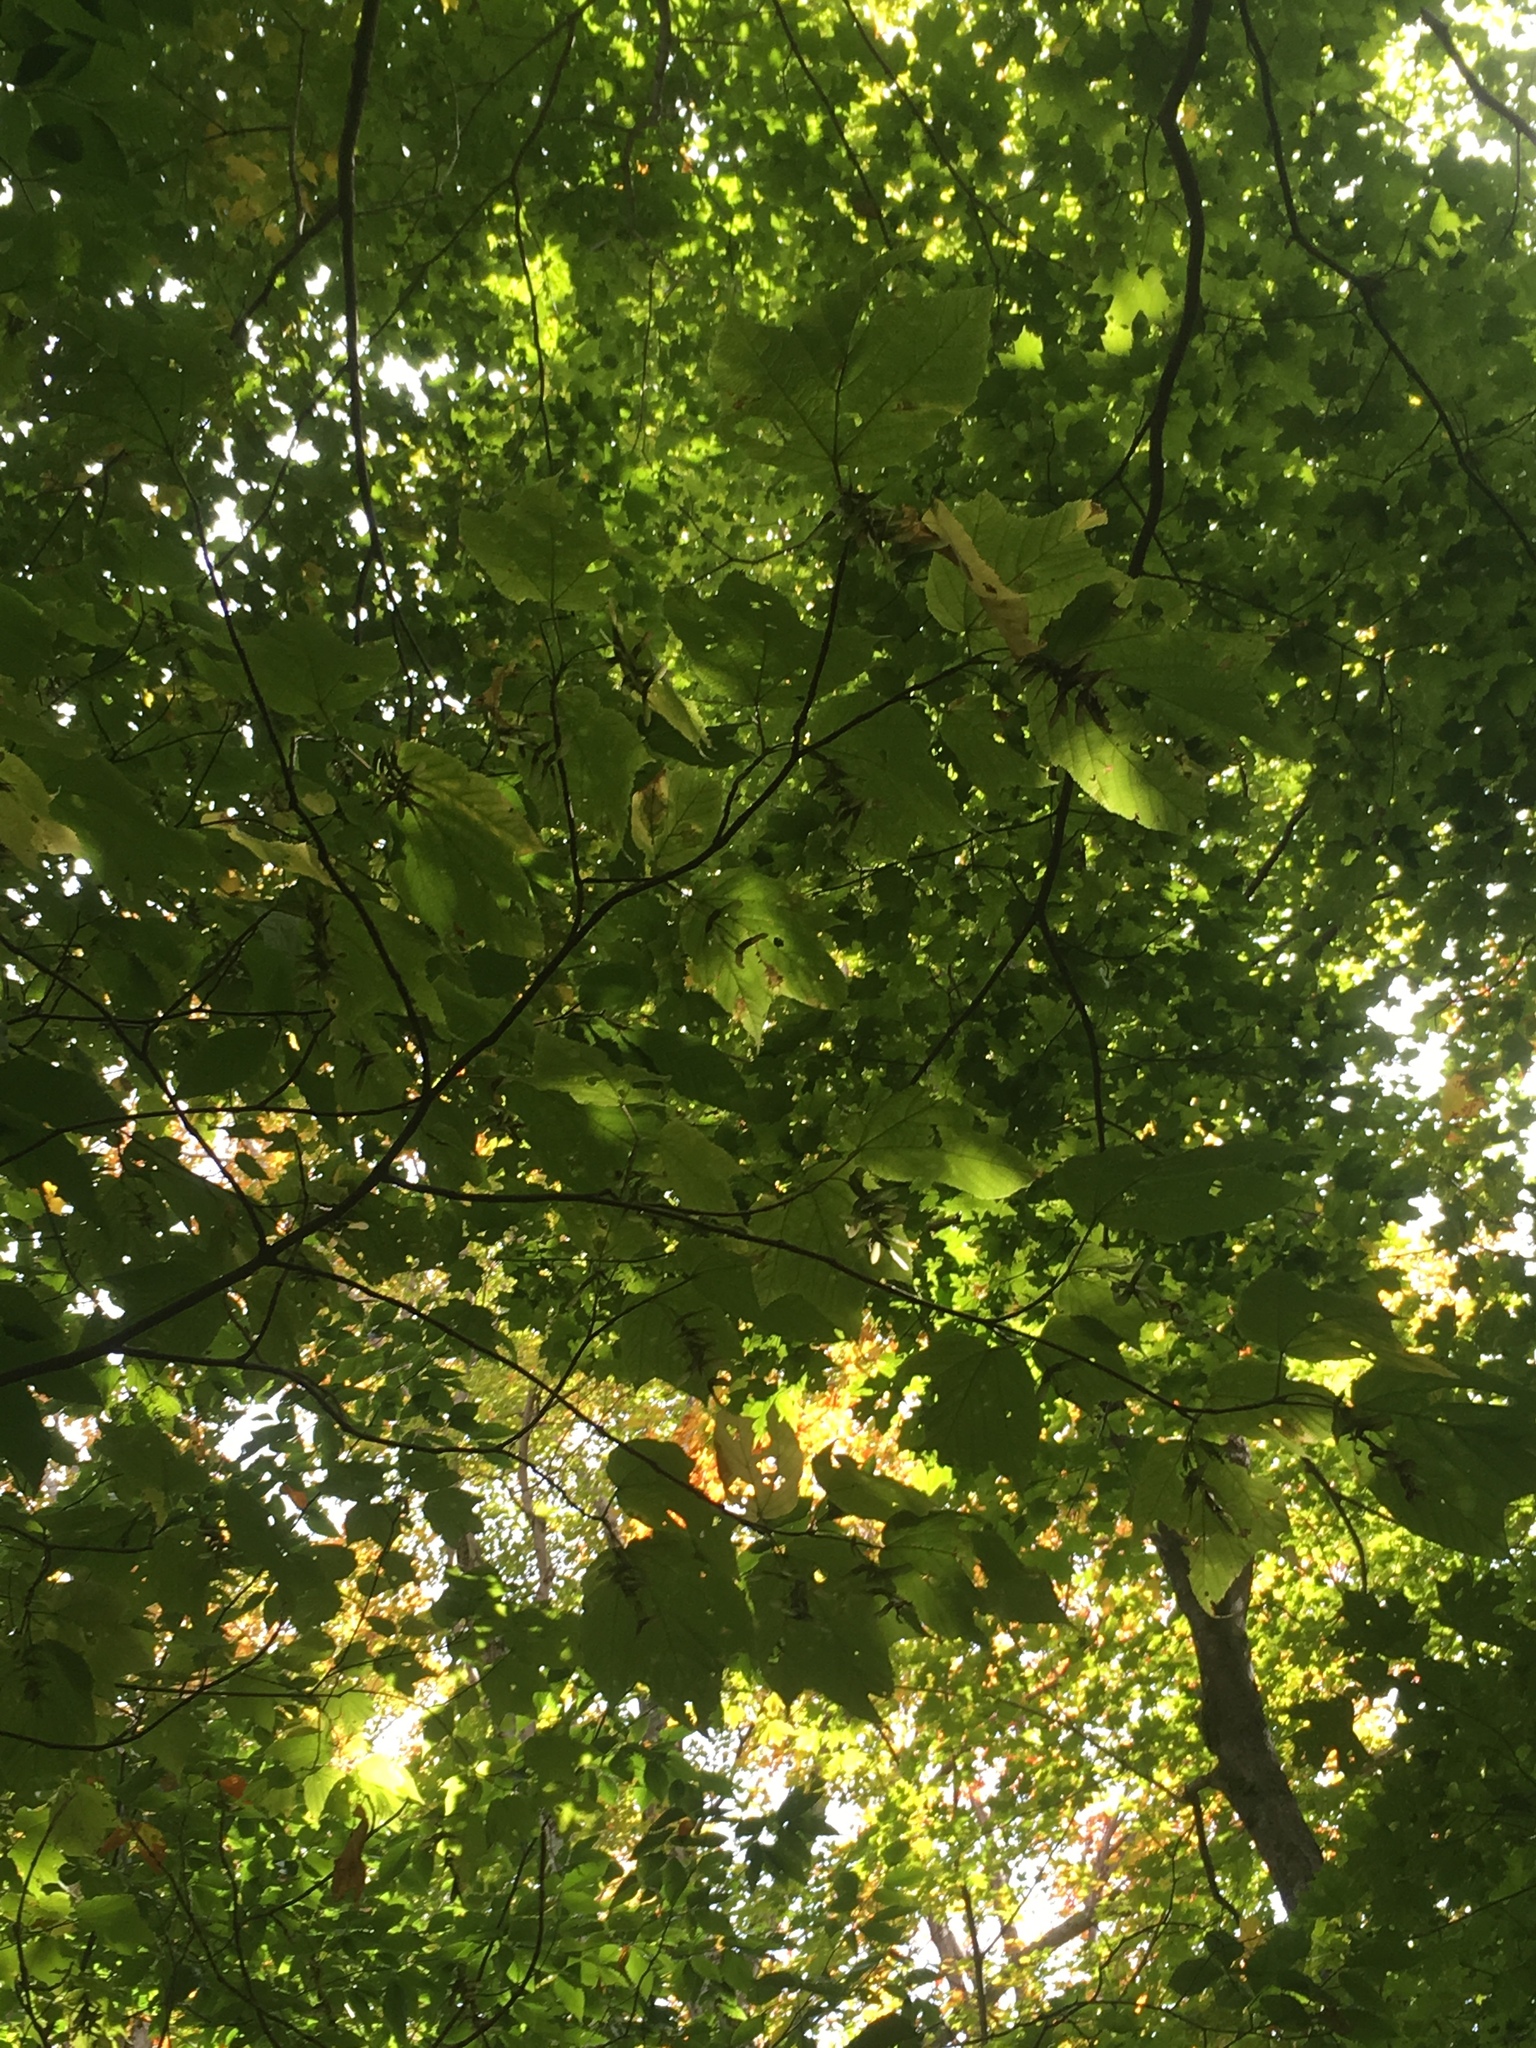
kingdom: Plantae
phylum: Tracheophyta
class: Magnoliopsida
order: Sapindales
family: Sapindaceae
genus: Acer
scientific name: Acer pensylvanicum
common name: Moosewood
